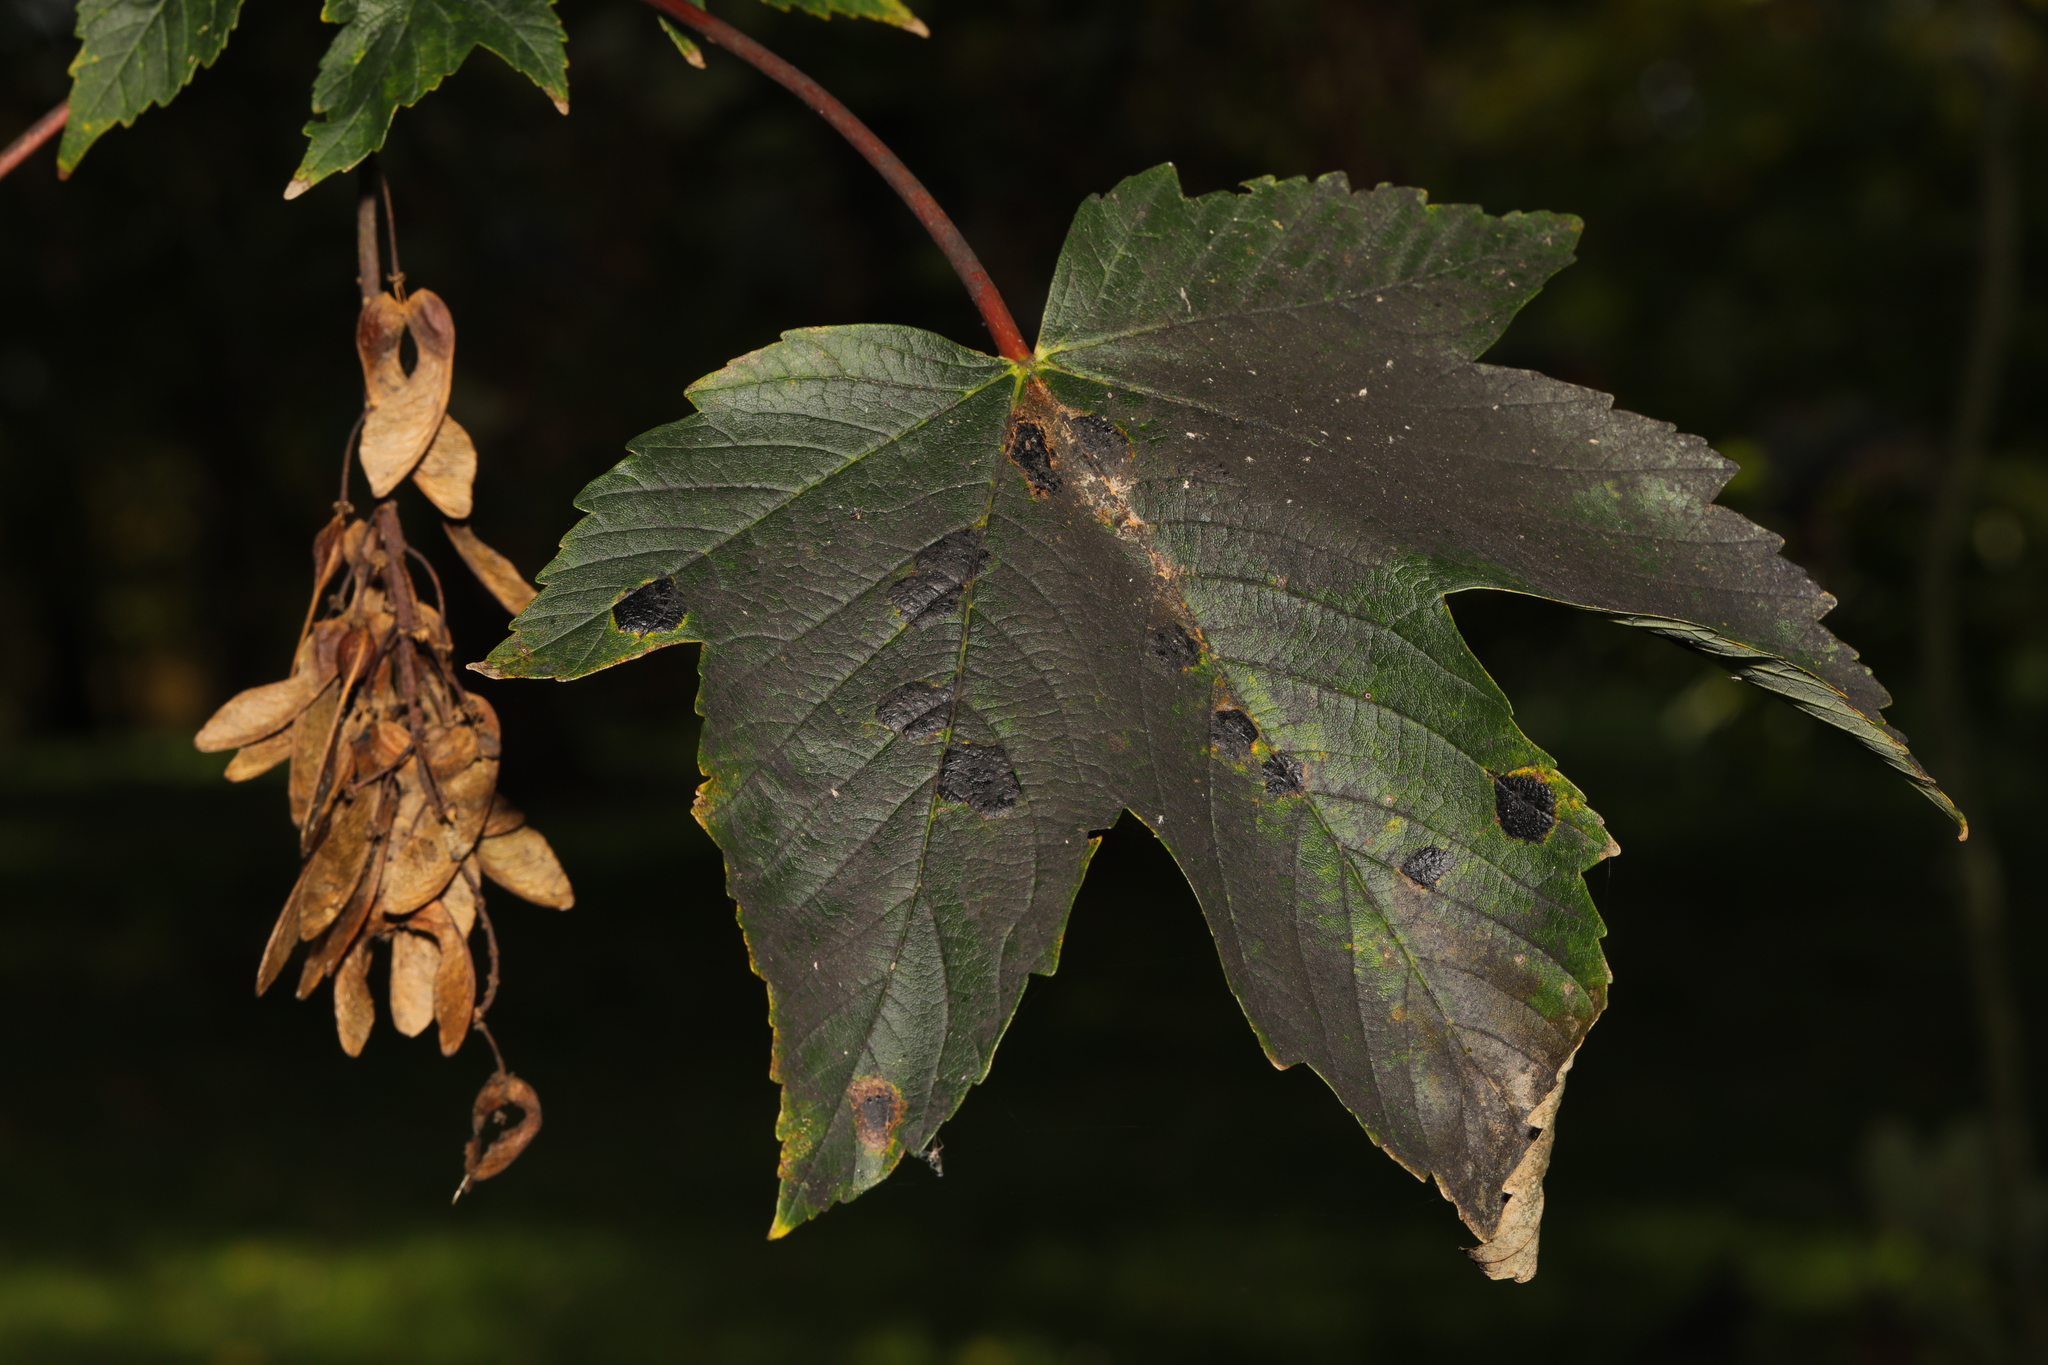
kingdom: Fungi
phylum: Ascomycota
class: Leotiomycetes
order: Rhytismatales
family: Rhytismataceae
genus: Rhytisma
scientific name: Rhytisma acerinum
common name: European tar spot
